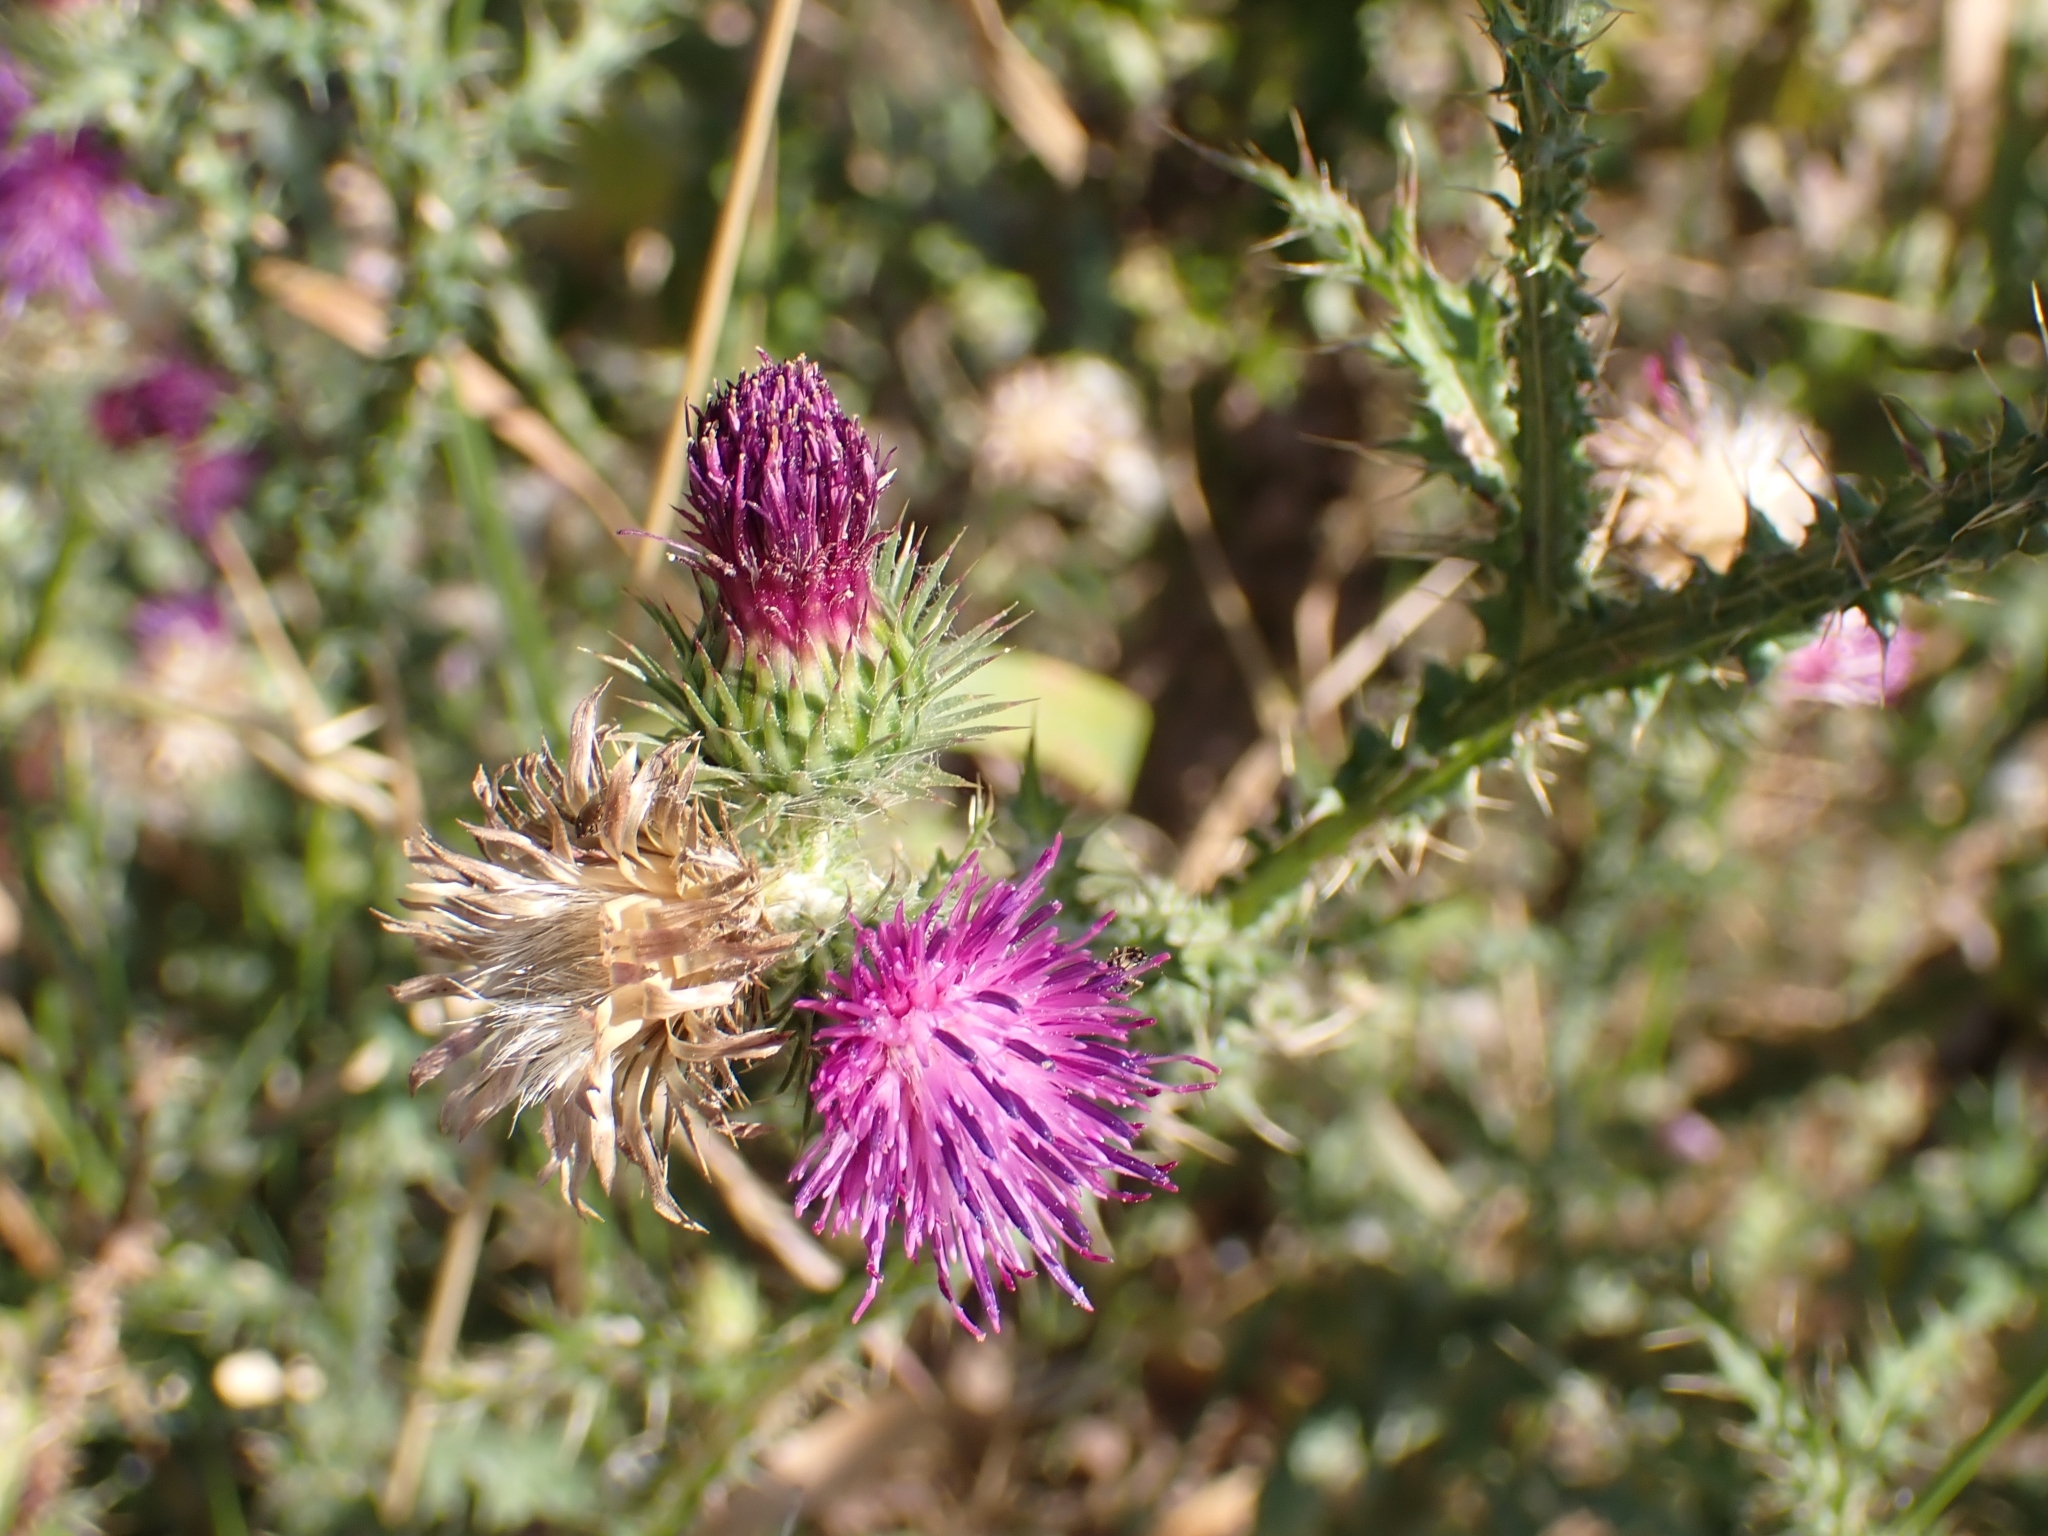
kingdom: Plantae
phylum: Tracheophyta
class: Magnoliopsida
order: Asterales
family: Asteraceae
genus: Carduus
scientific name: Carduus crispus
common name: Welted thistle
